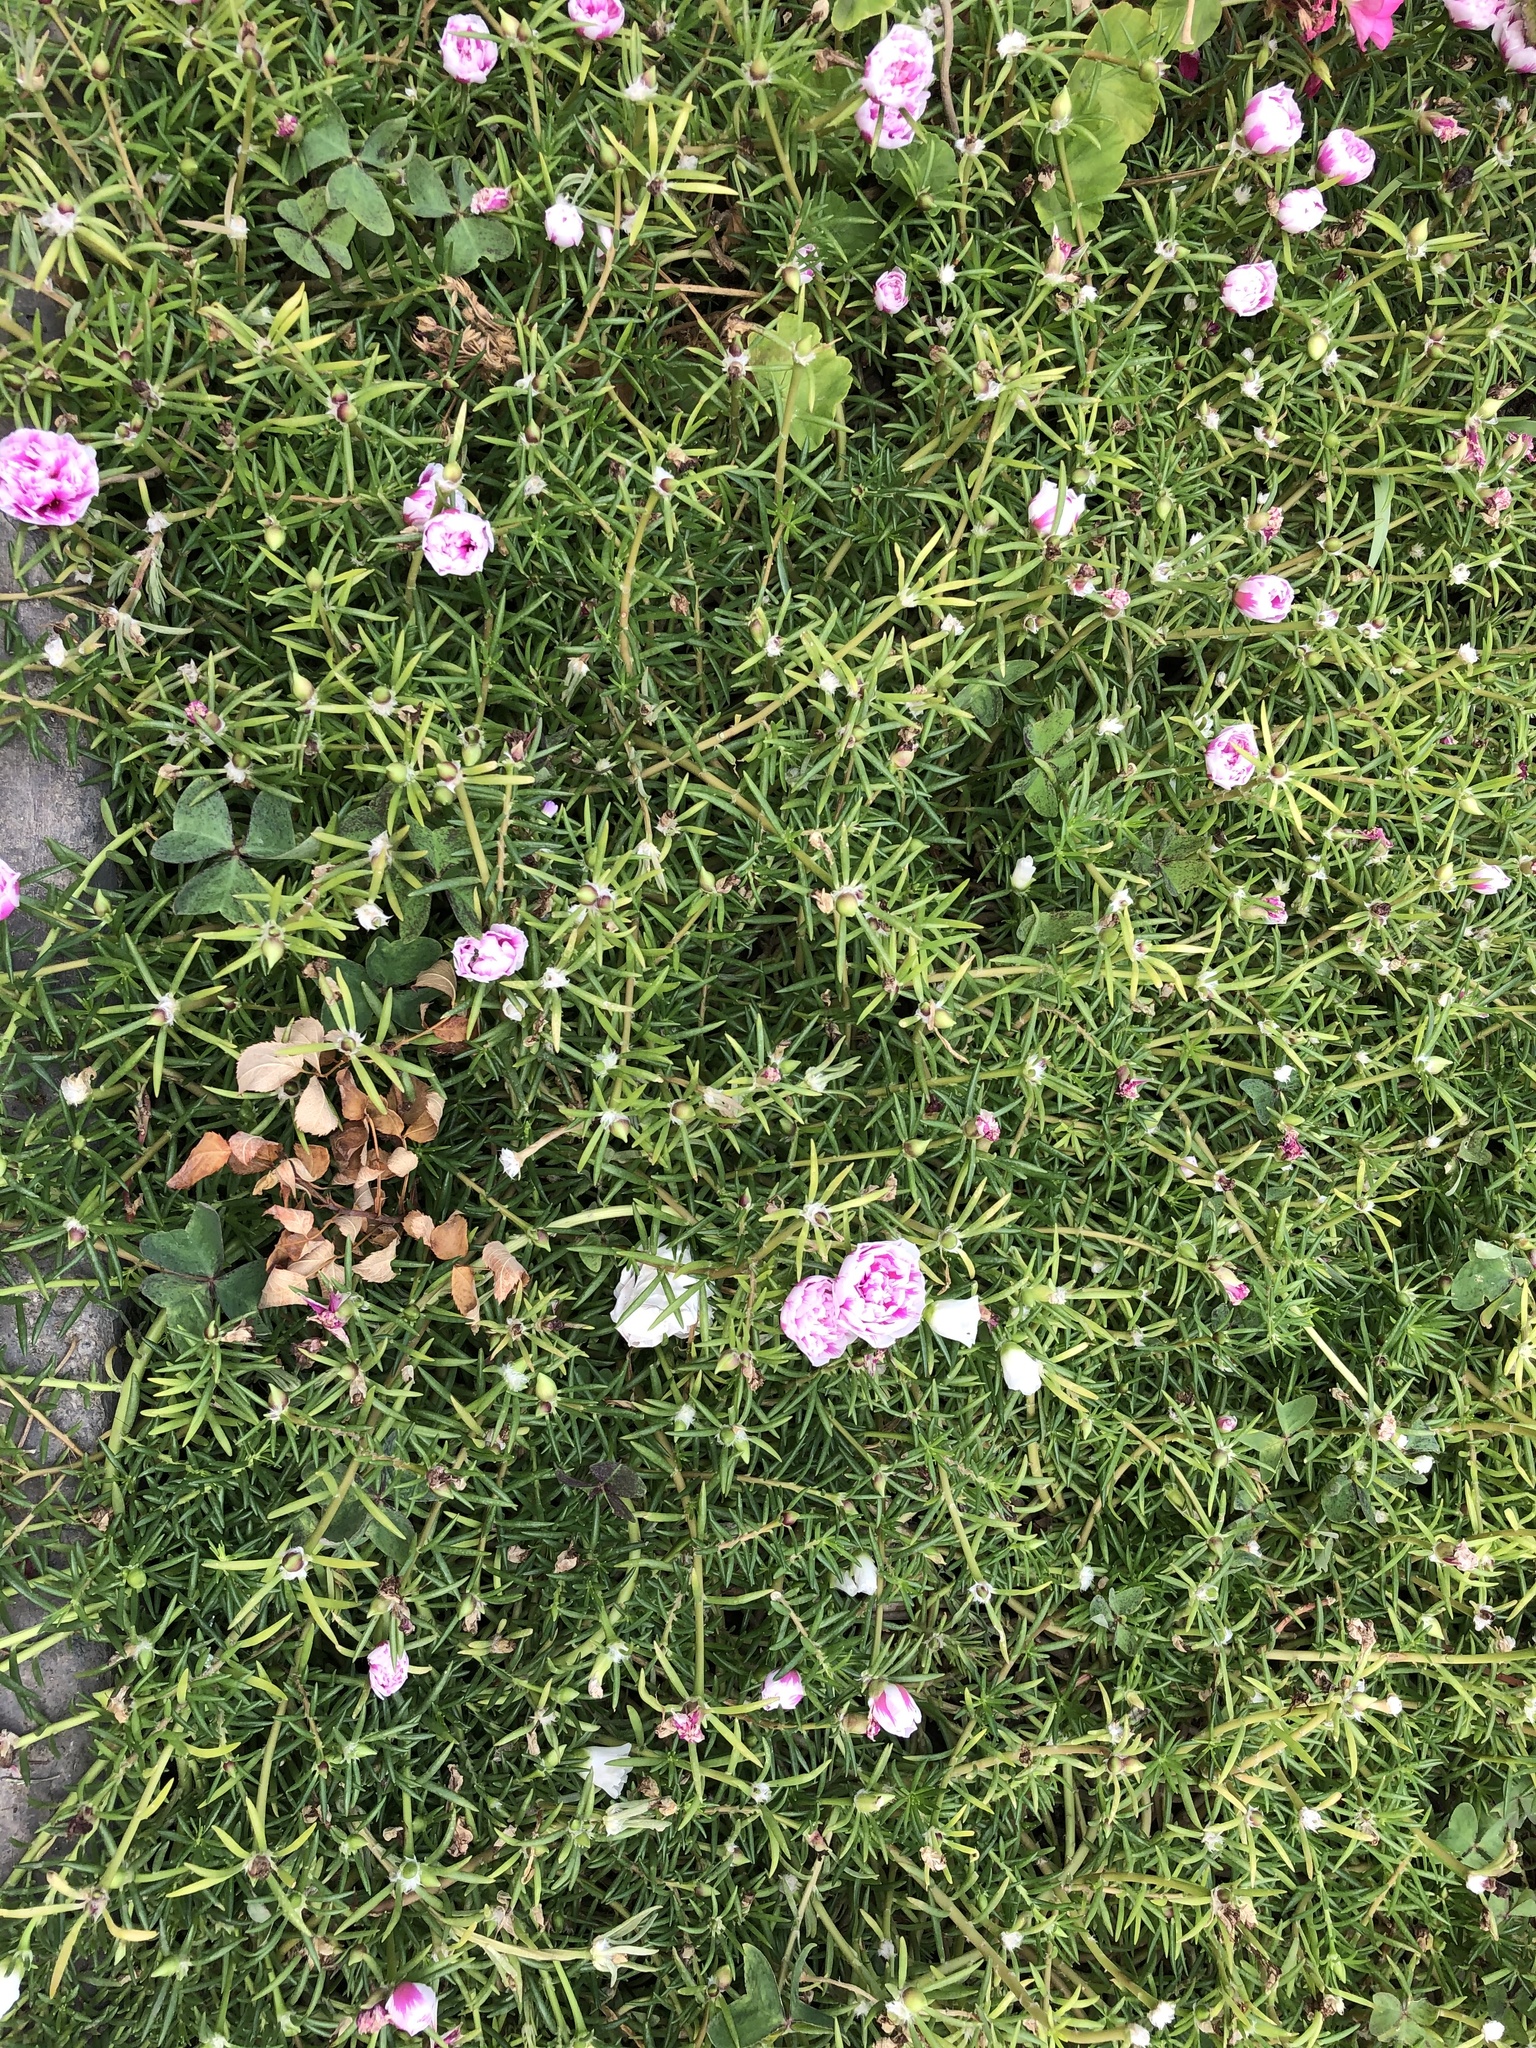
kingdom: Plantae
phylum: Tracheophyta
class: Magnoliopsida
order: Caryophyllales
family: Portulacaceae
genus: Portulaca
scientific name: Portulaca grandiflora
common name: Moss-rose
